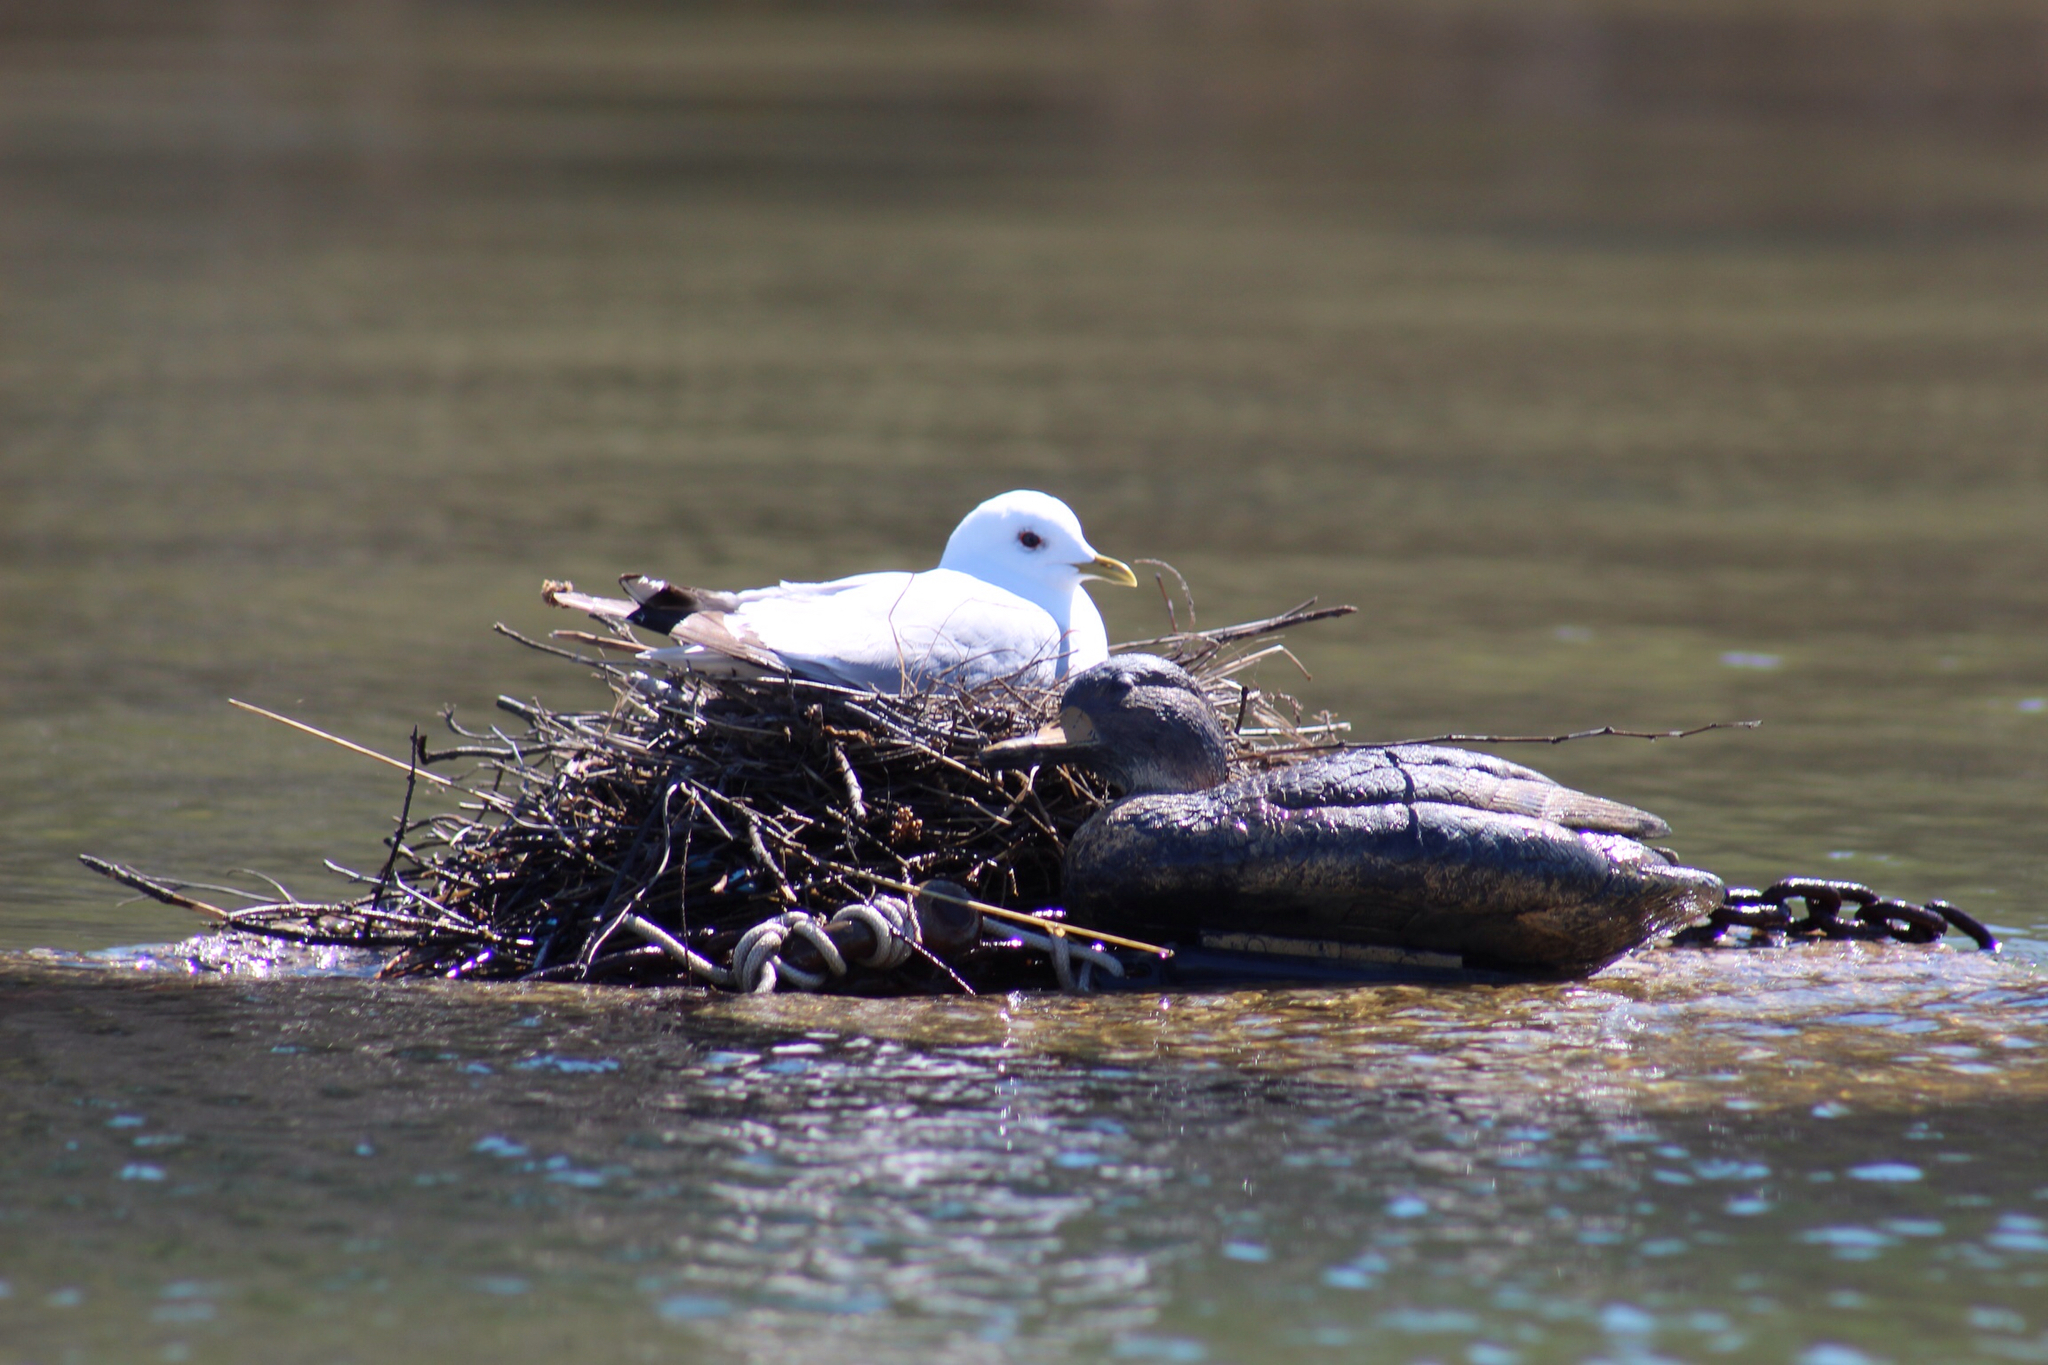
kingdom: Animalia
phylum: Chordata
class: Aves
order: Charadriiformes
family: Laridae
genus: Larus
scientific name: Larus brachyrhynchus
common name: Short-billed gull
